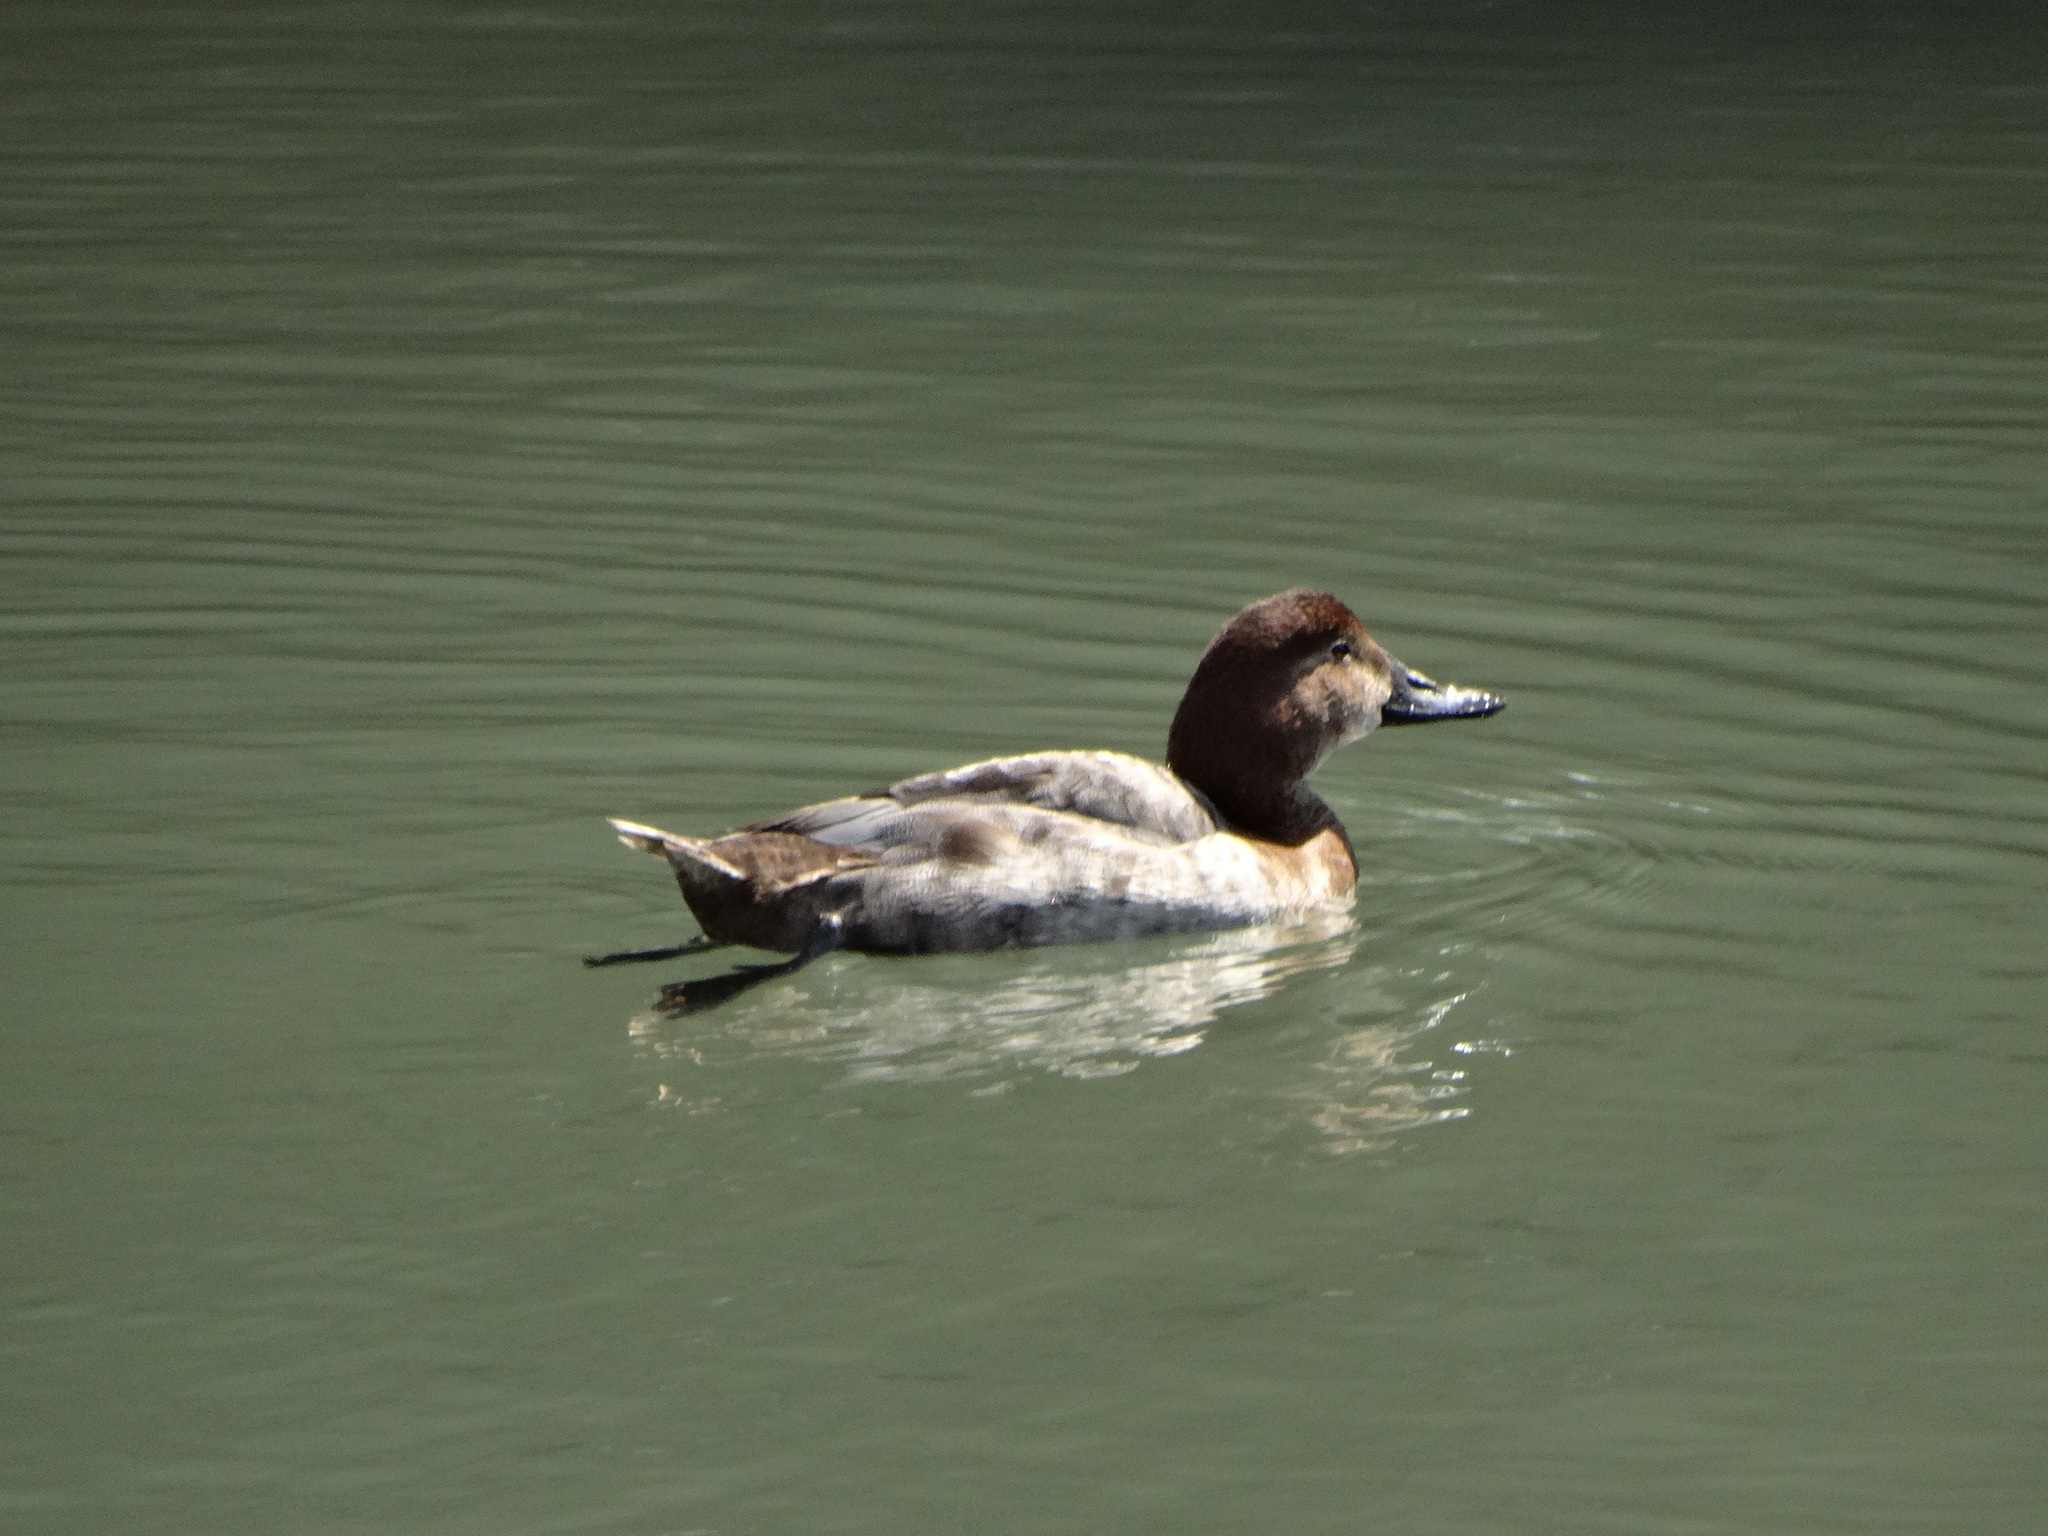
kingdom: Animalia
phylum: Chordata
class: Aves
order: Anseriformes
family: Anatidae
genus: Aythya
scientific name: Aythya ferina
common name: Common pochard
